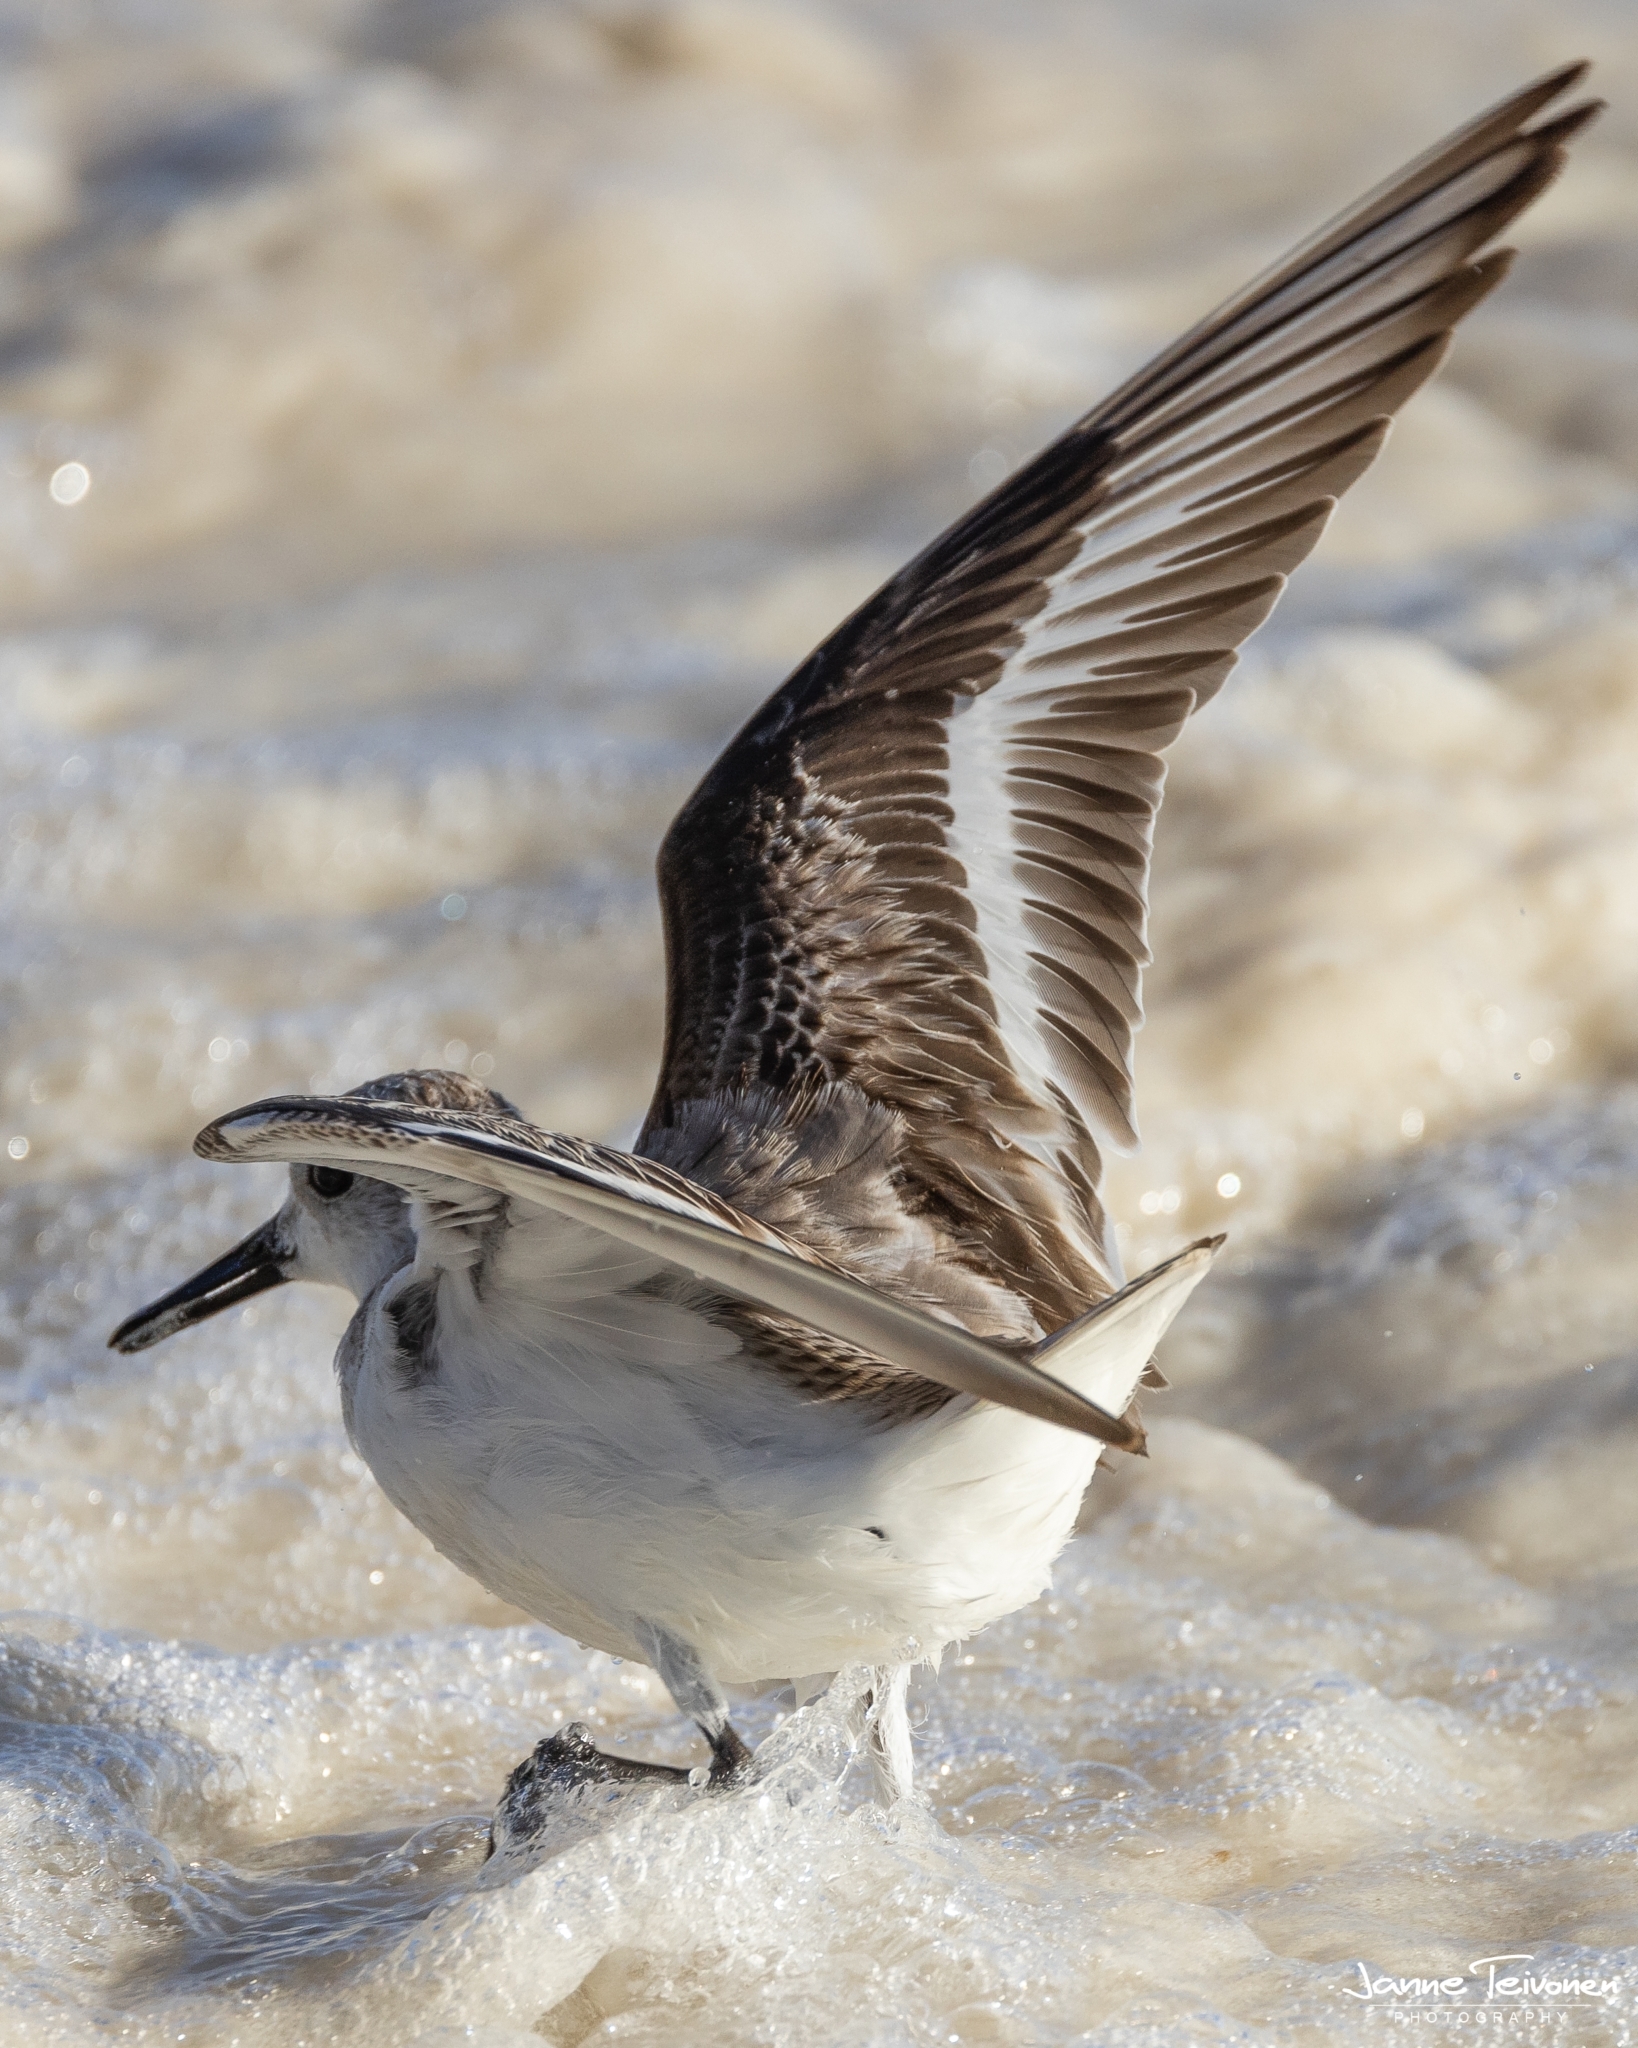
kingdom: Animalia
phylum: Chordata
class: Aves
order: Charadriiformes
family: Scolopacidae
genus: Calidris
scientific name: Calidris alba
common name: Sanderling
